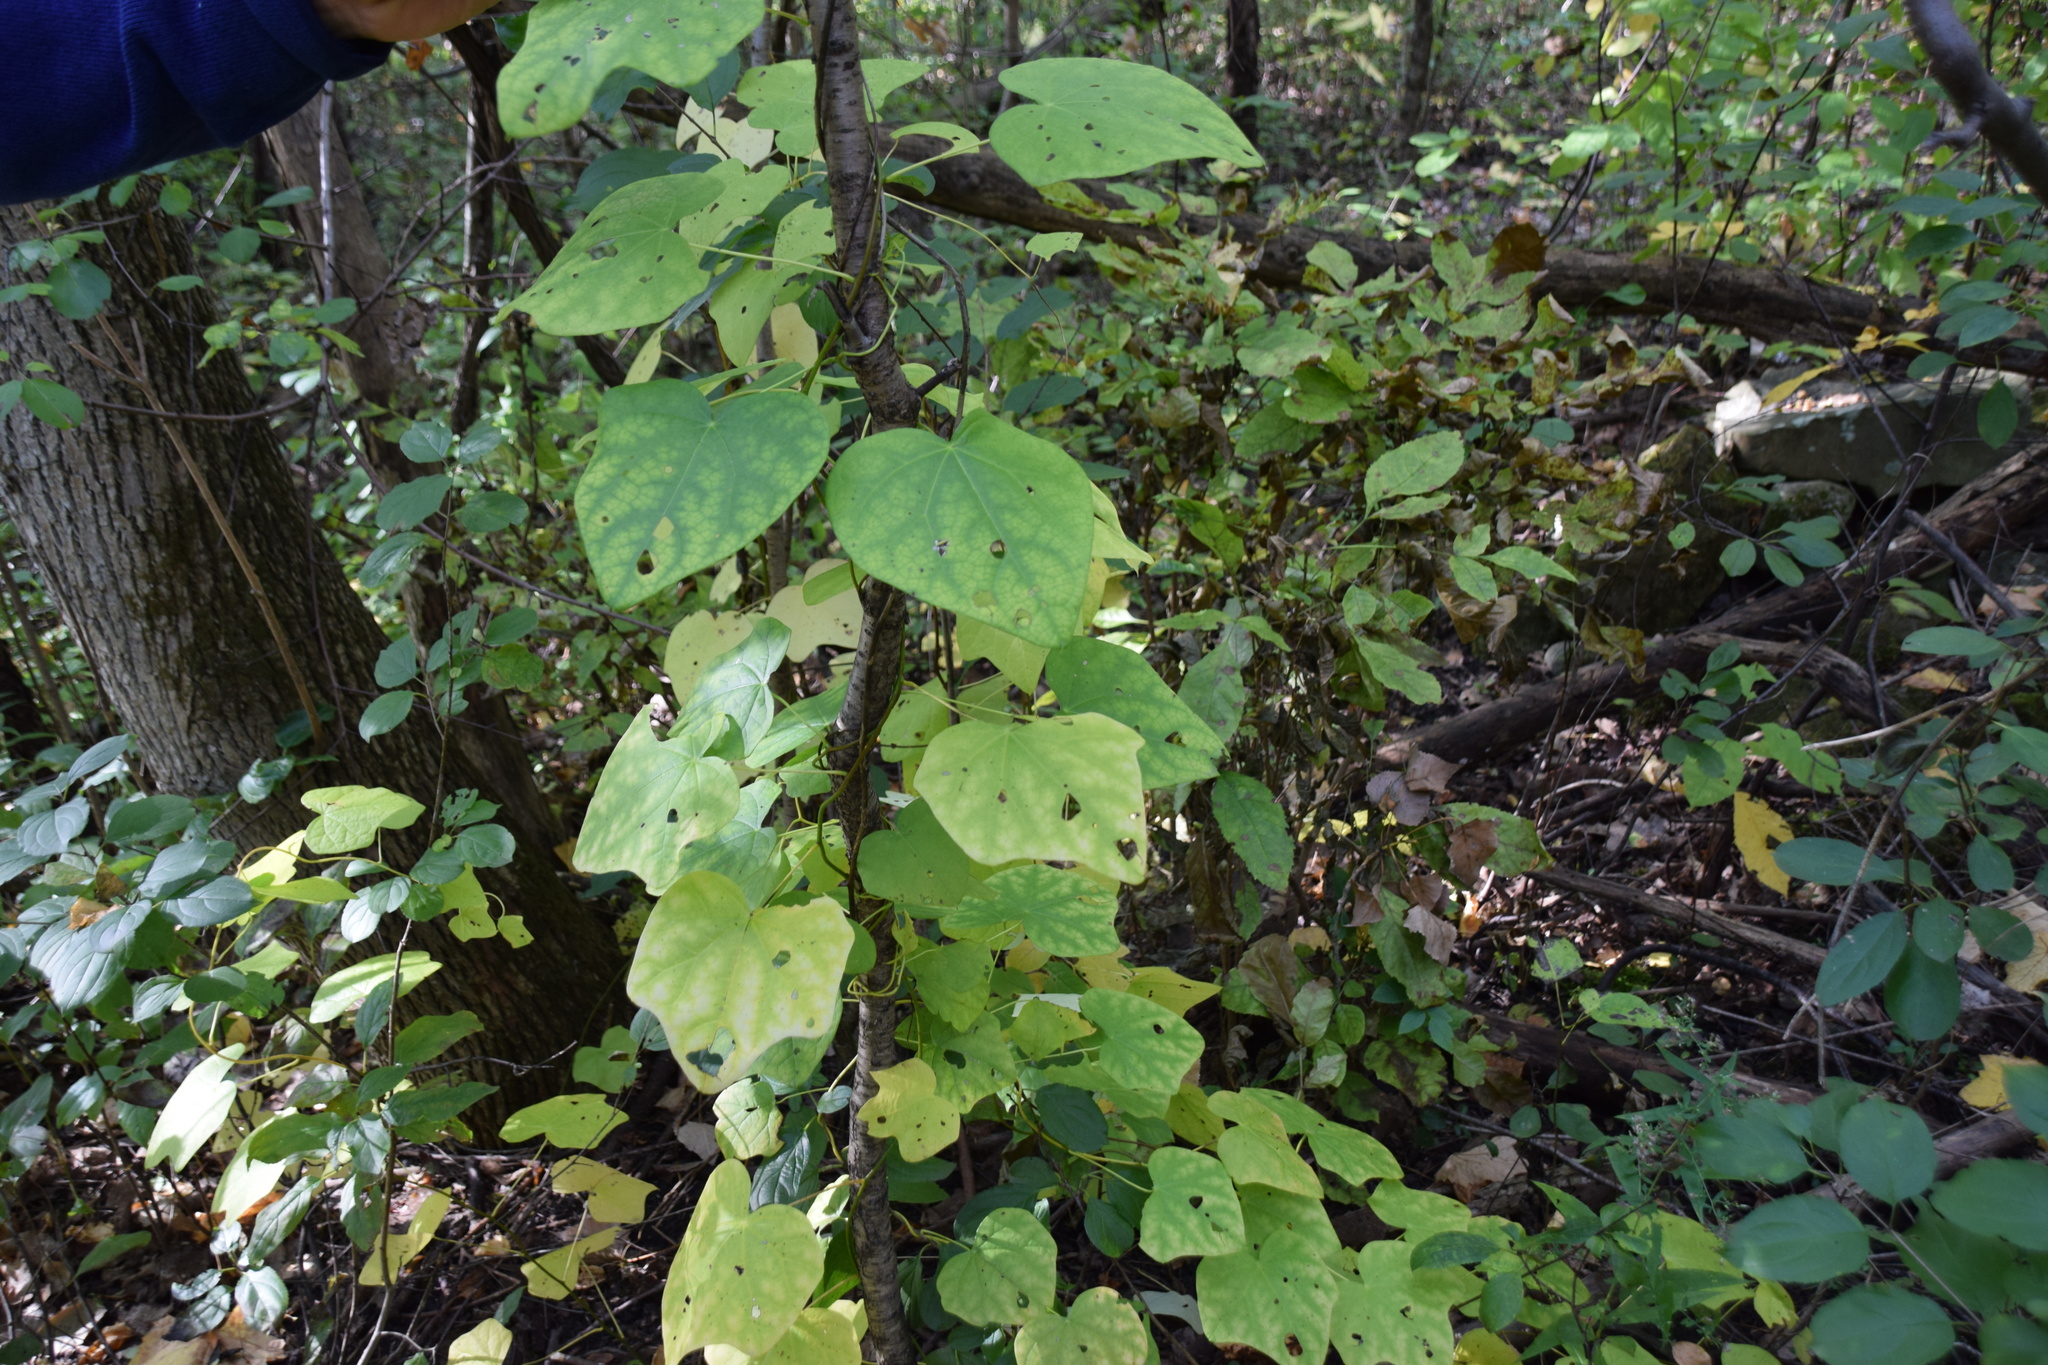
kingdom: Plantae
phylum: Tracheophyta
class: Magnoliopsida
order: Ranunculales
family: Menispermaceae
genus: Menispermum
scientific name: Menispermum canadense
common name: Moonseed
